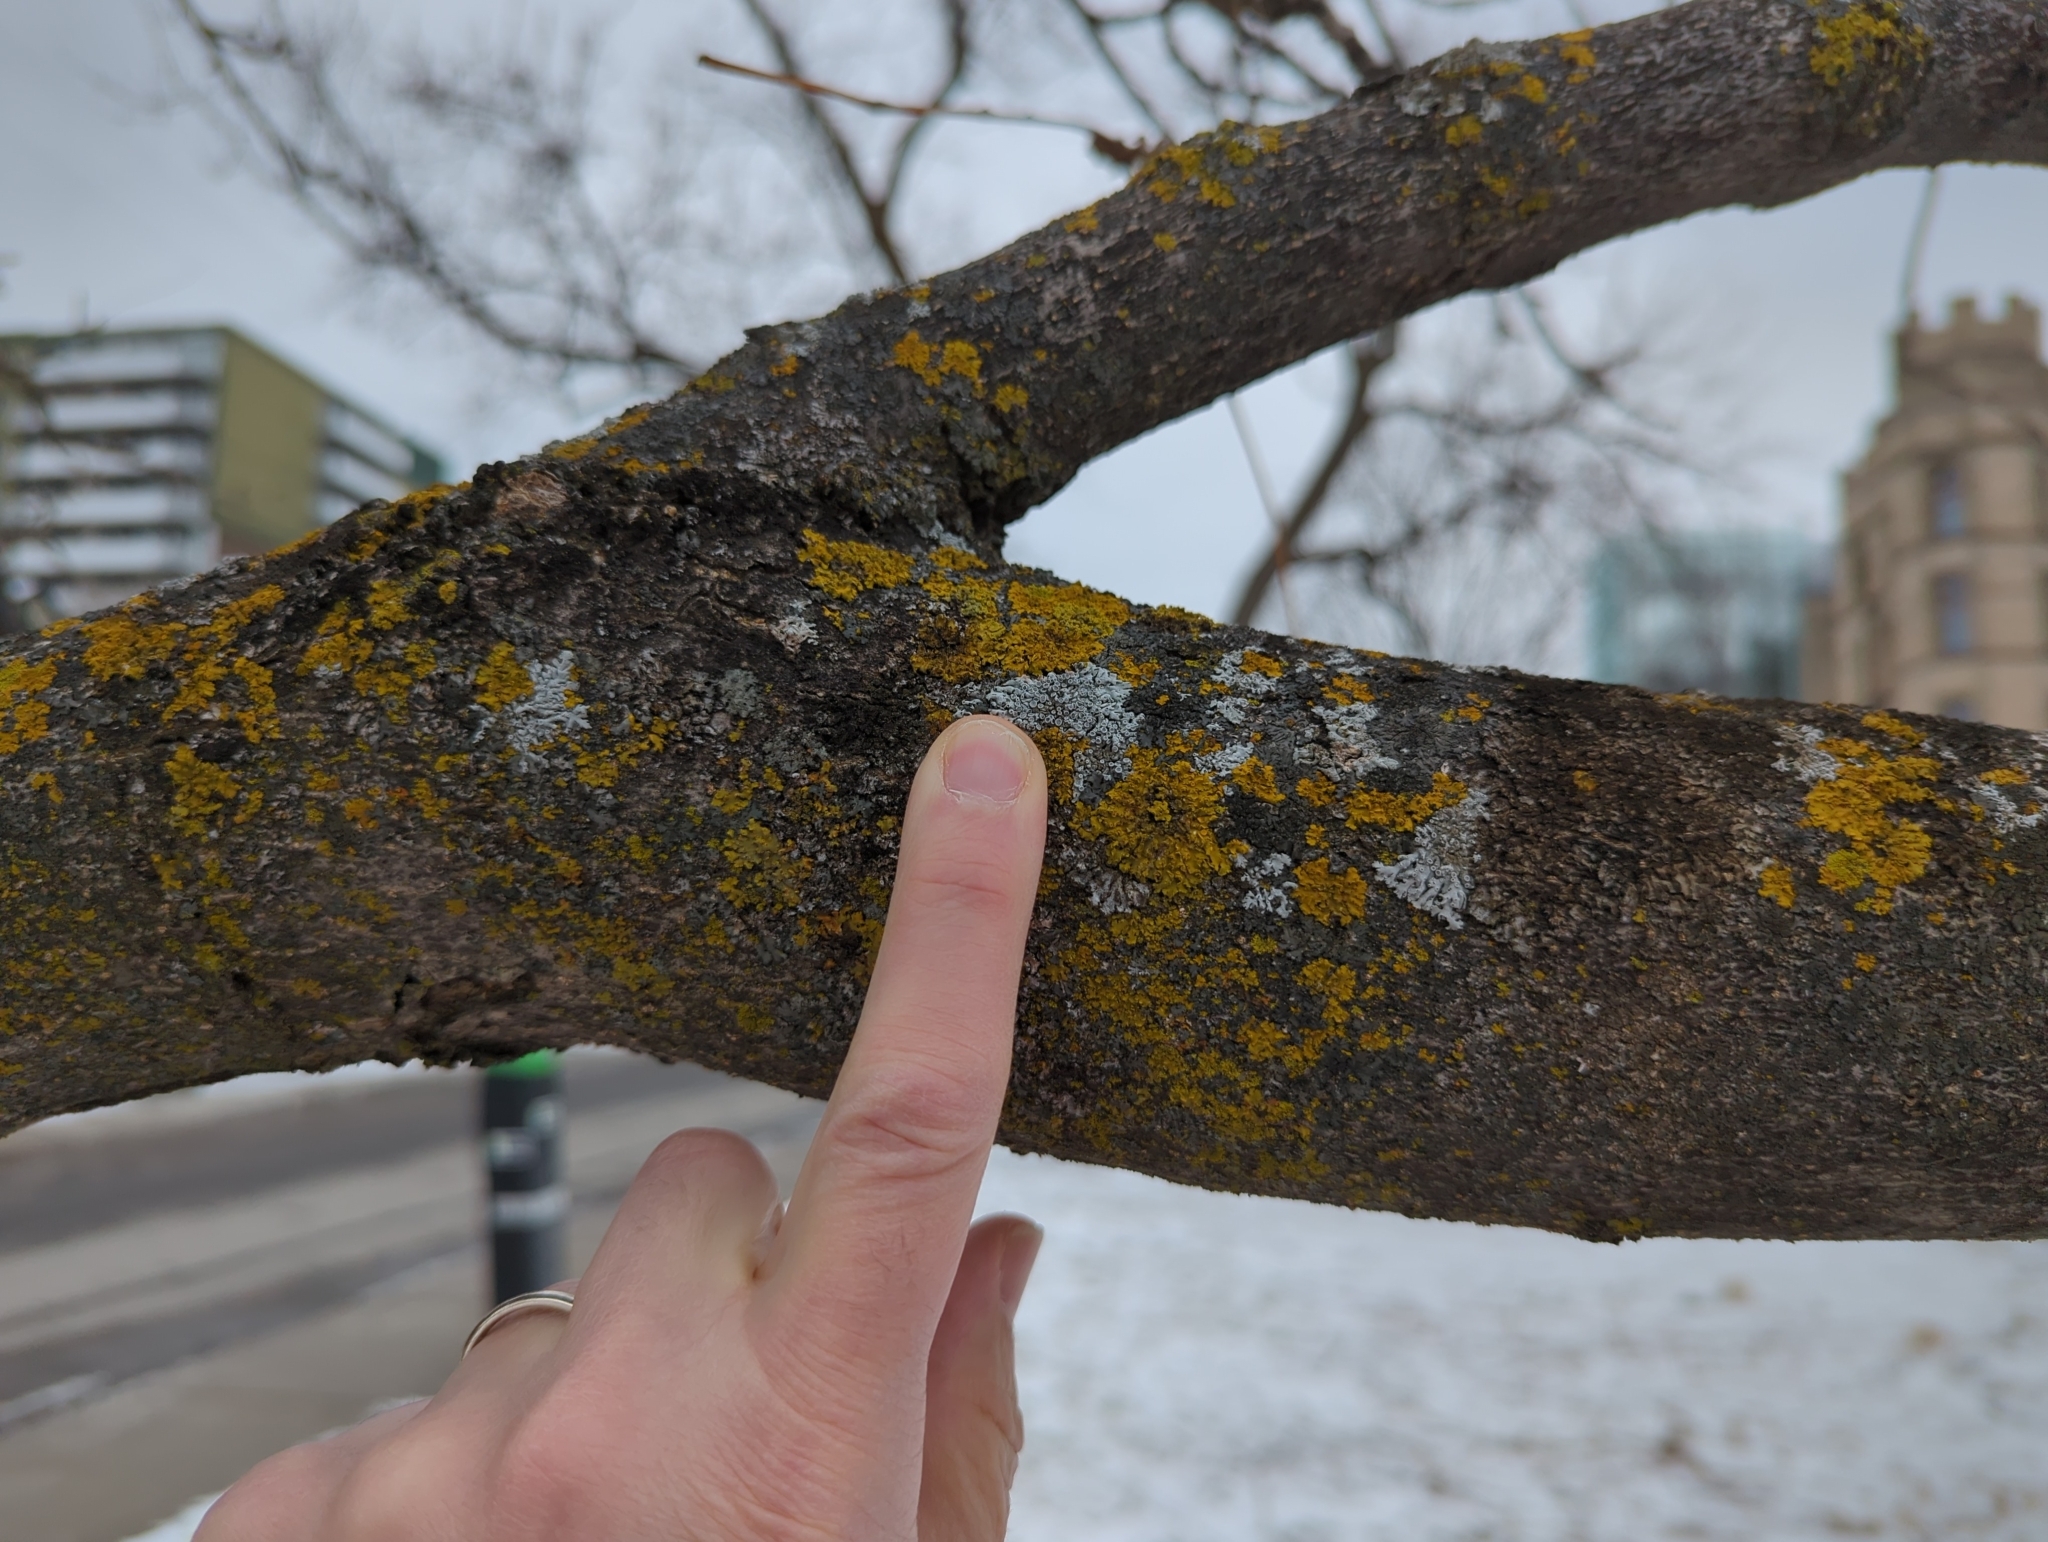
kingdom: Fungi
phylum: Ascomycota
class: Lecanoromycetes
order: Caliciales
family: Physciaceae
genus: Physcia
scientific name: Physcia aipolia
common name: Hoary rosette lichen
